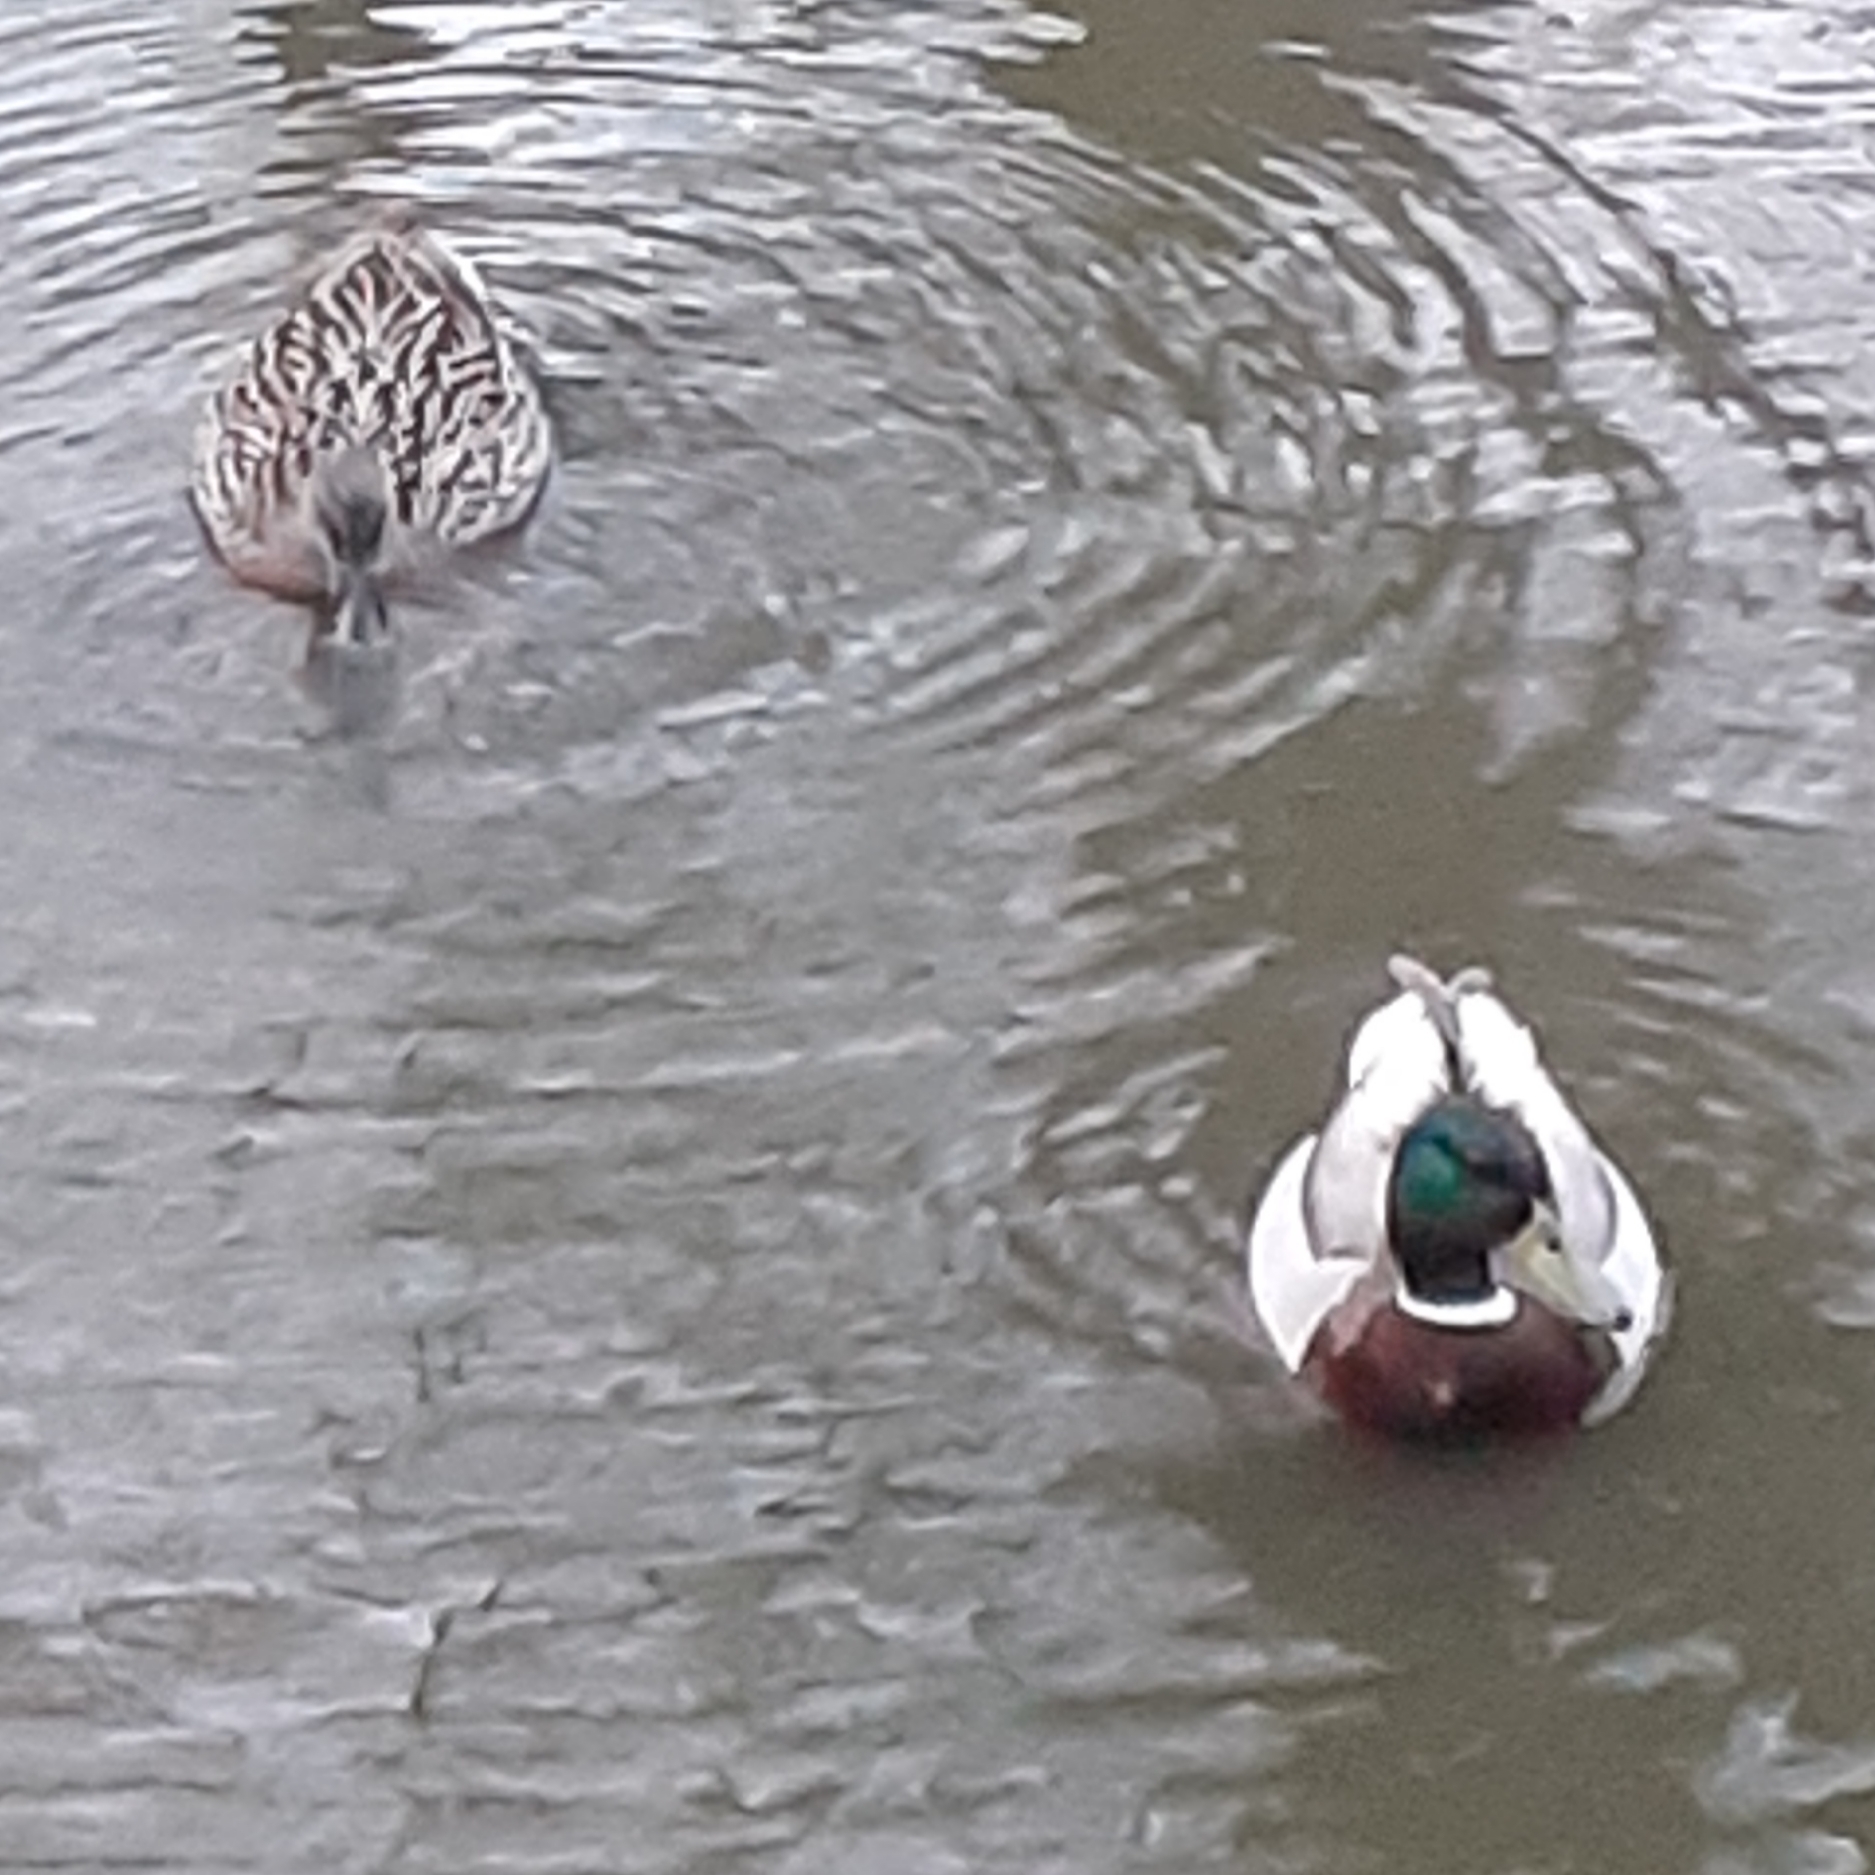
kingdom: Animalia
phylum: Chordata
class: Aves
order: Anseriformes
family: Anatidae
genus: Anas
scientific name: Anas platyrhynchos
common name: Mallard
